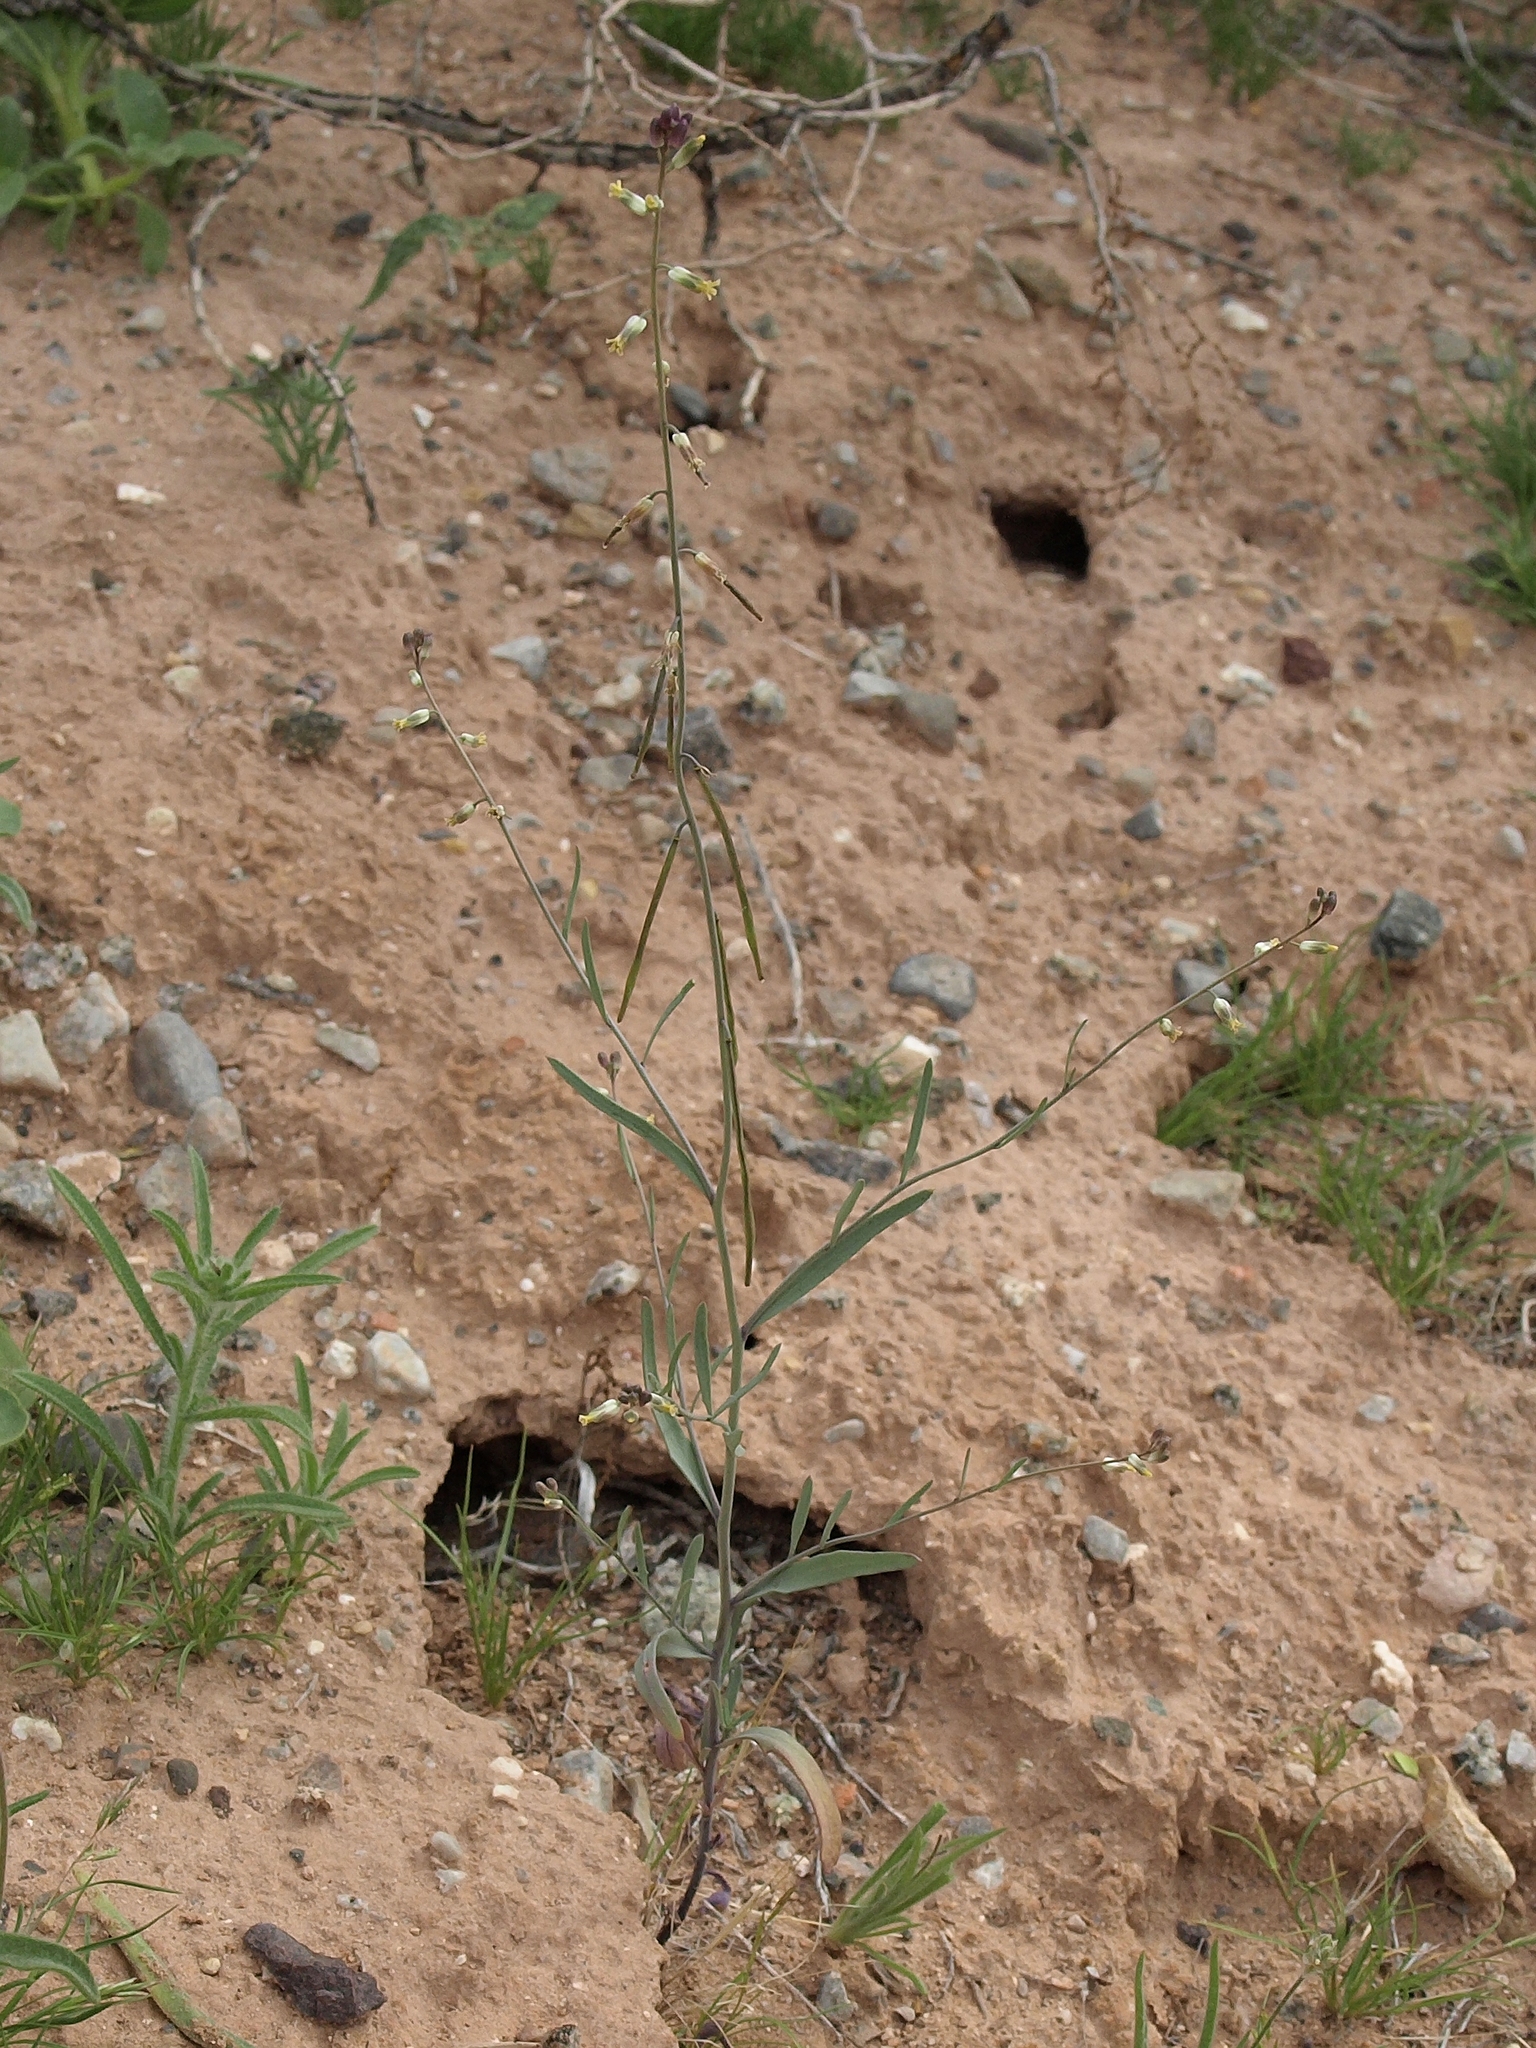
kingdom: Plantae
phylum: Tracheophyta
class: Magnoliopsida
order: Brassicales
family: Brassicaceae
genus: Streptanthus
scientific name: Streptanthus longirostris
